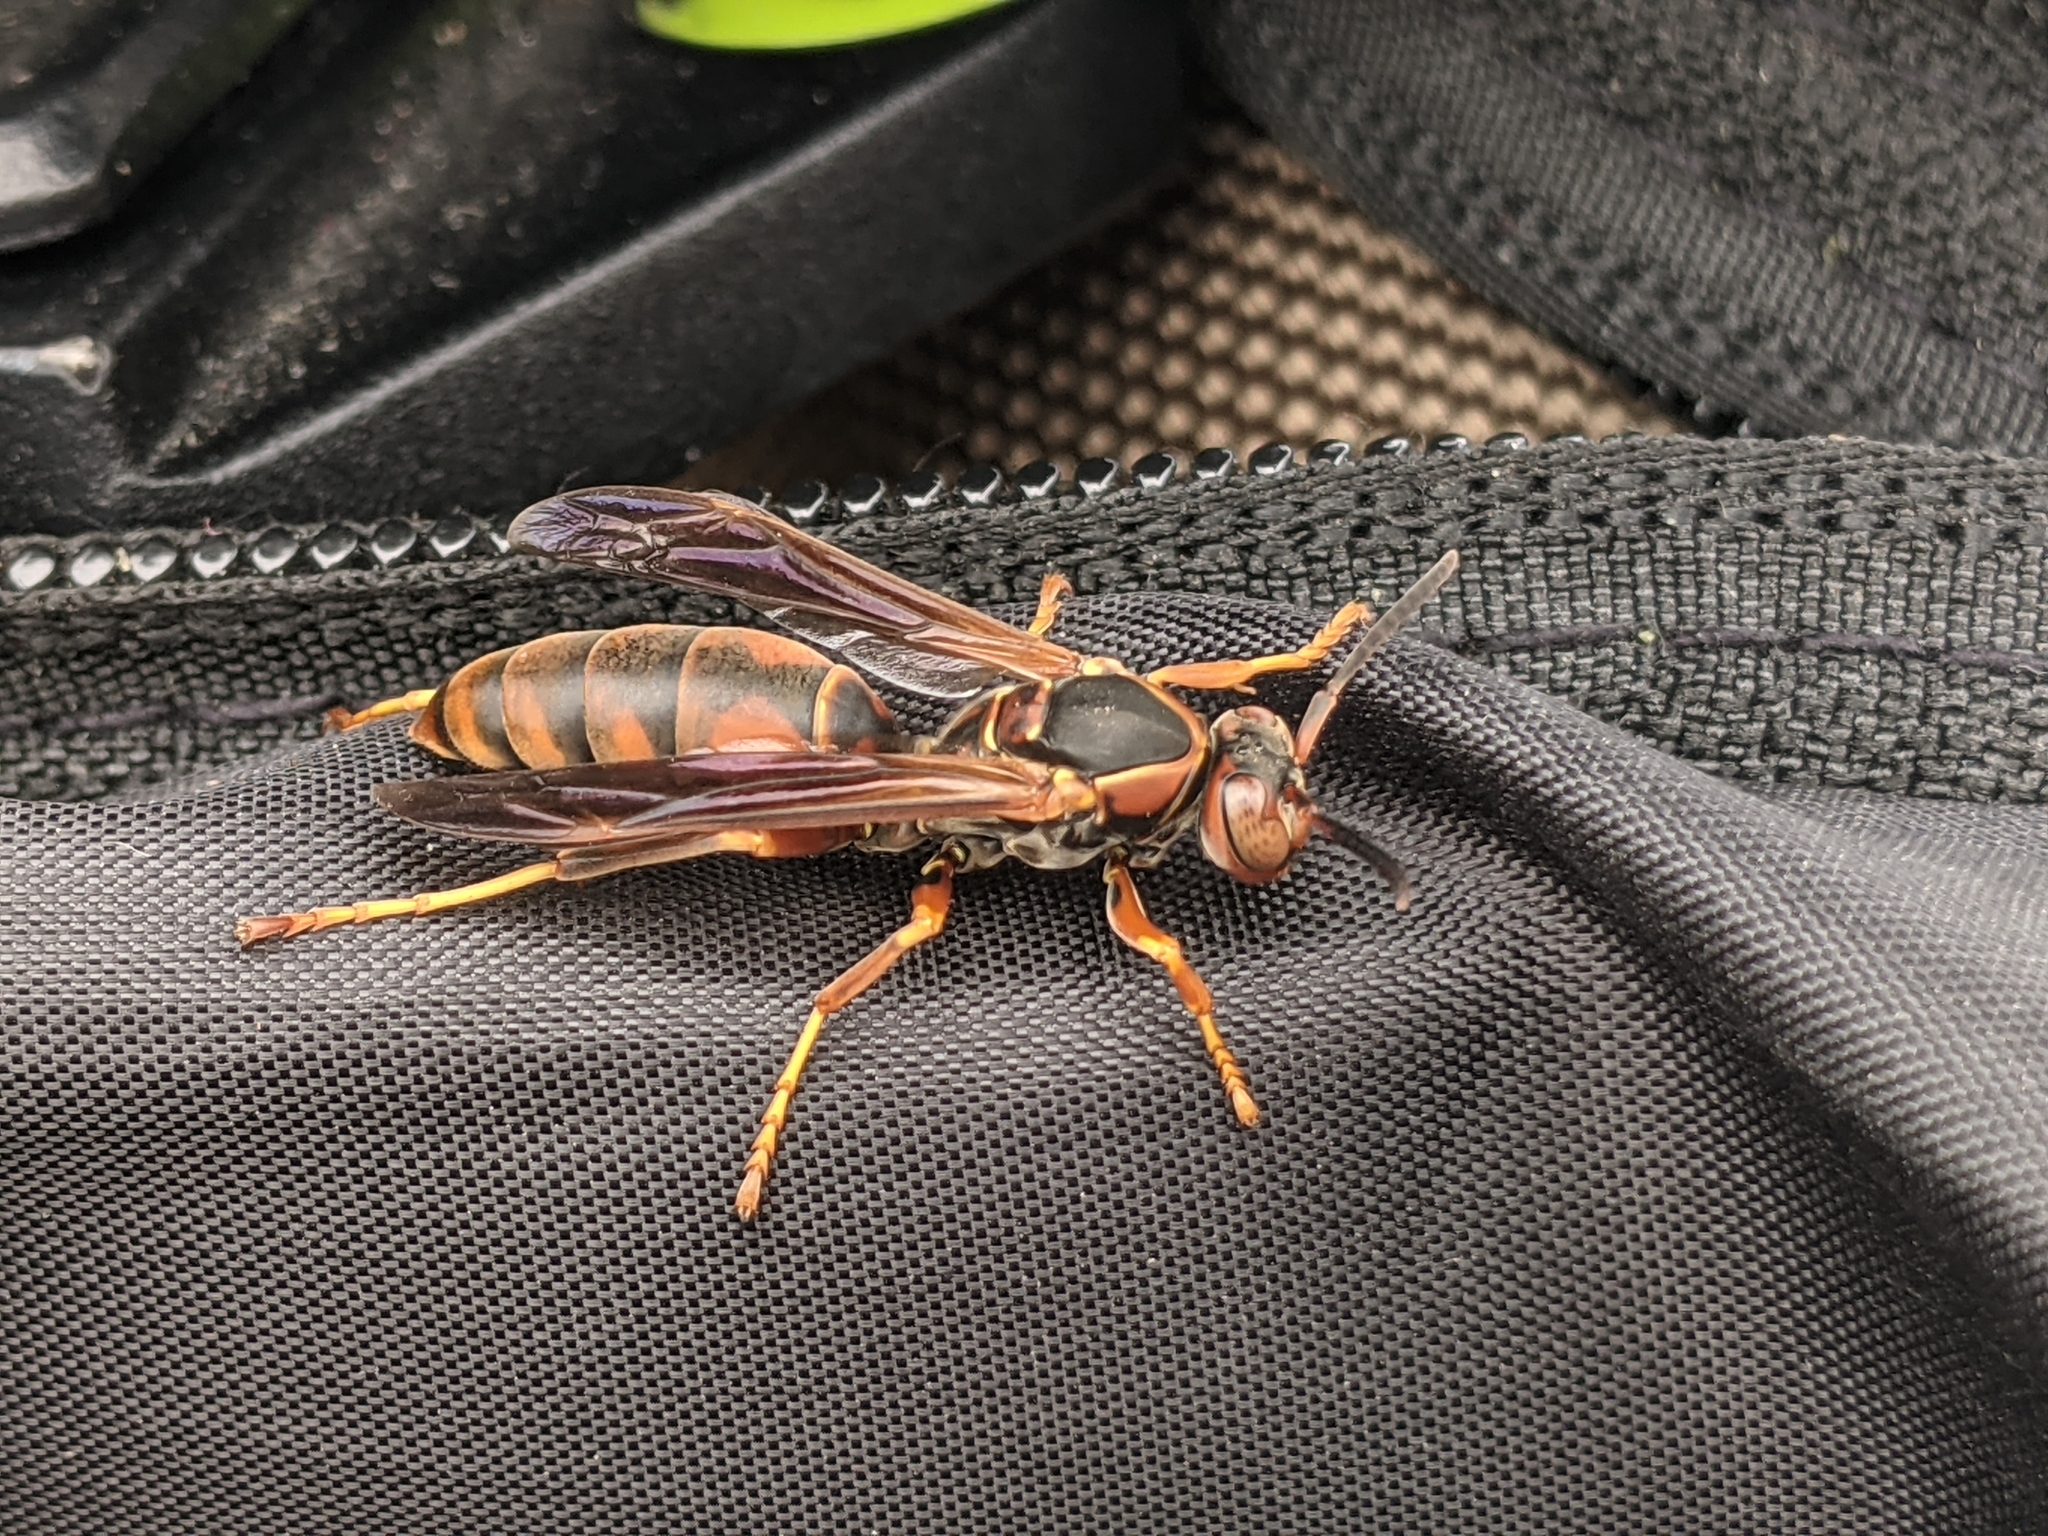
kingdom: Animalia
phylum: Arthropoda
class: Insecta
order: Hymenoptera
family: Eumenidae
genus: Polistes
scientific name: Polistes fuscatus
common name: Dark paper wasp
